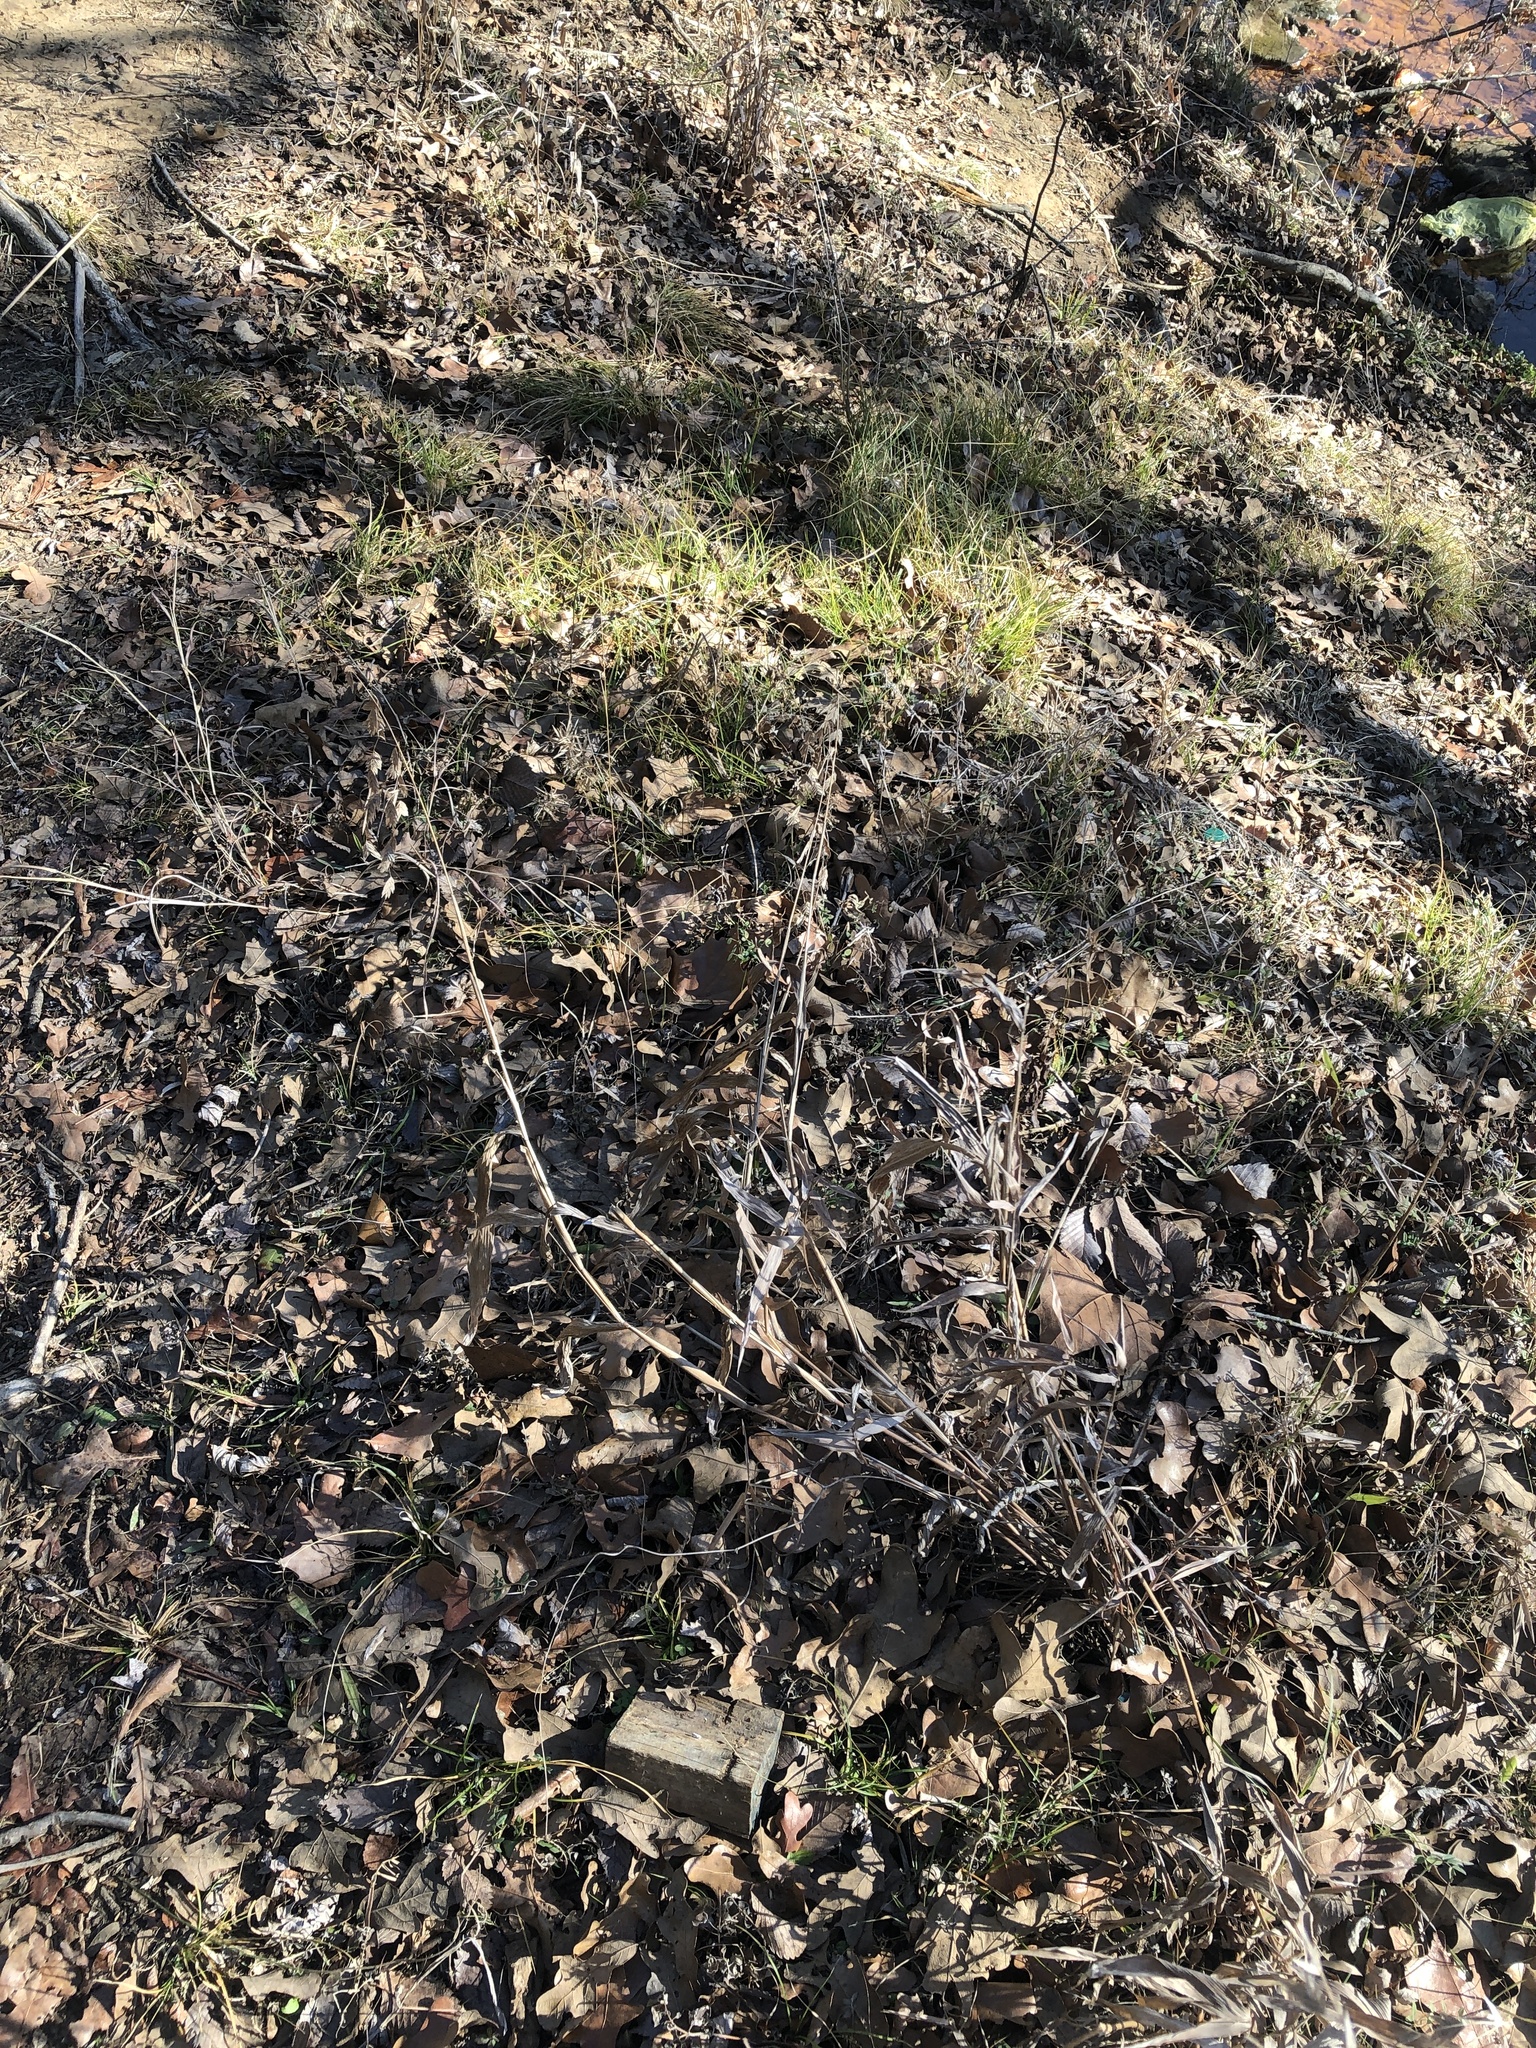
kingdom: Plantae
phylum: Tracheophyta
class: Liliopsida
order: Poales
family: Poaceae
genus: Chasmanthium
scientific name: Chasmanthium latifolium
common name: Broad-leaved chasmanthium
